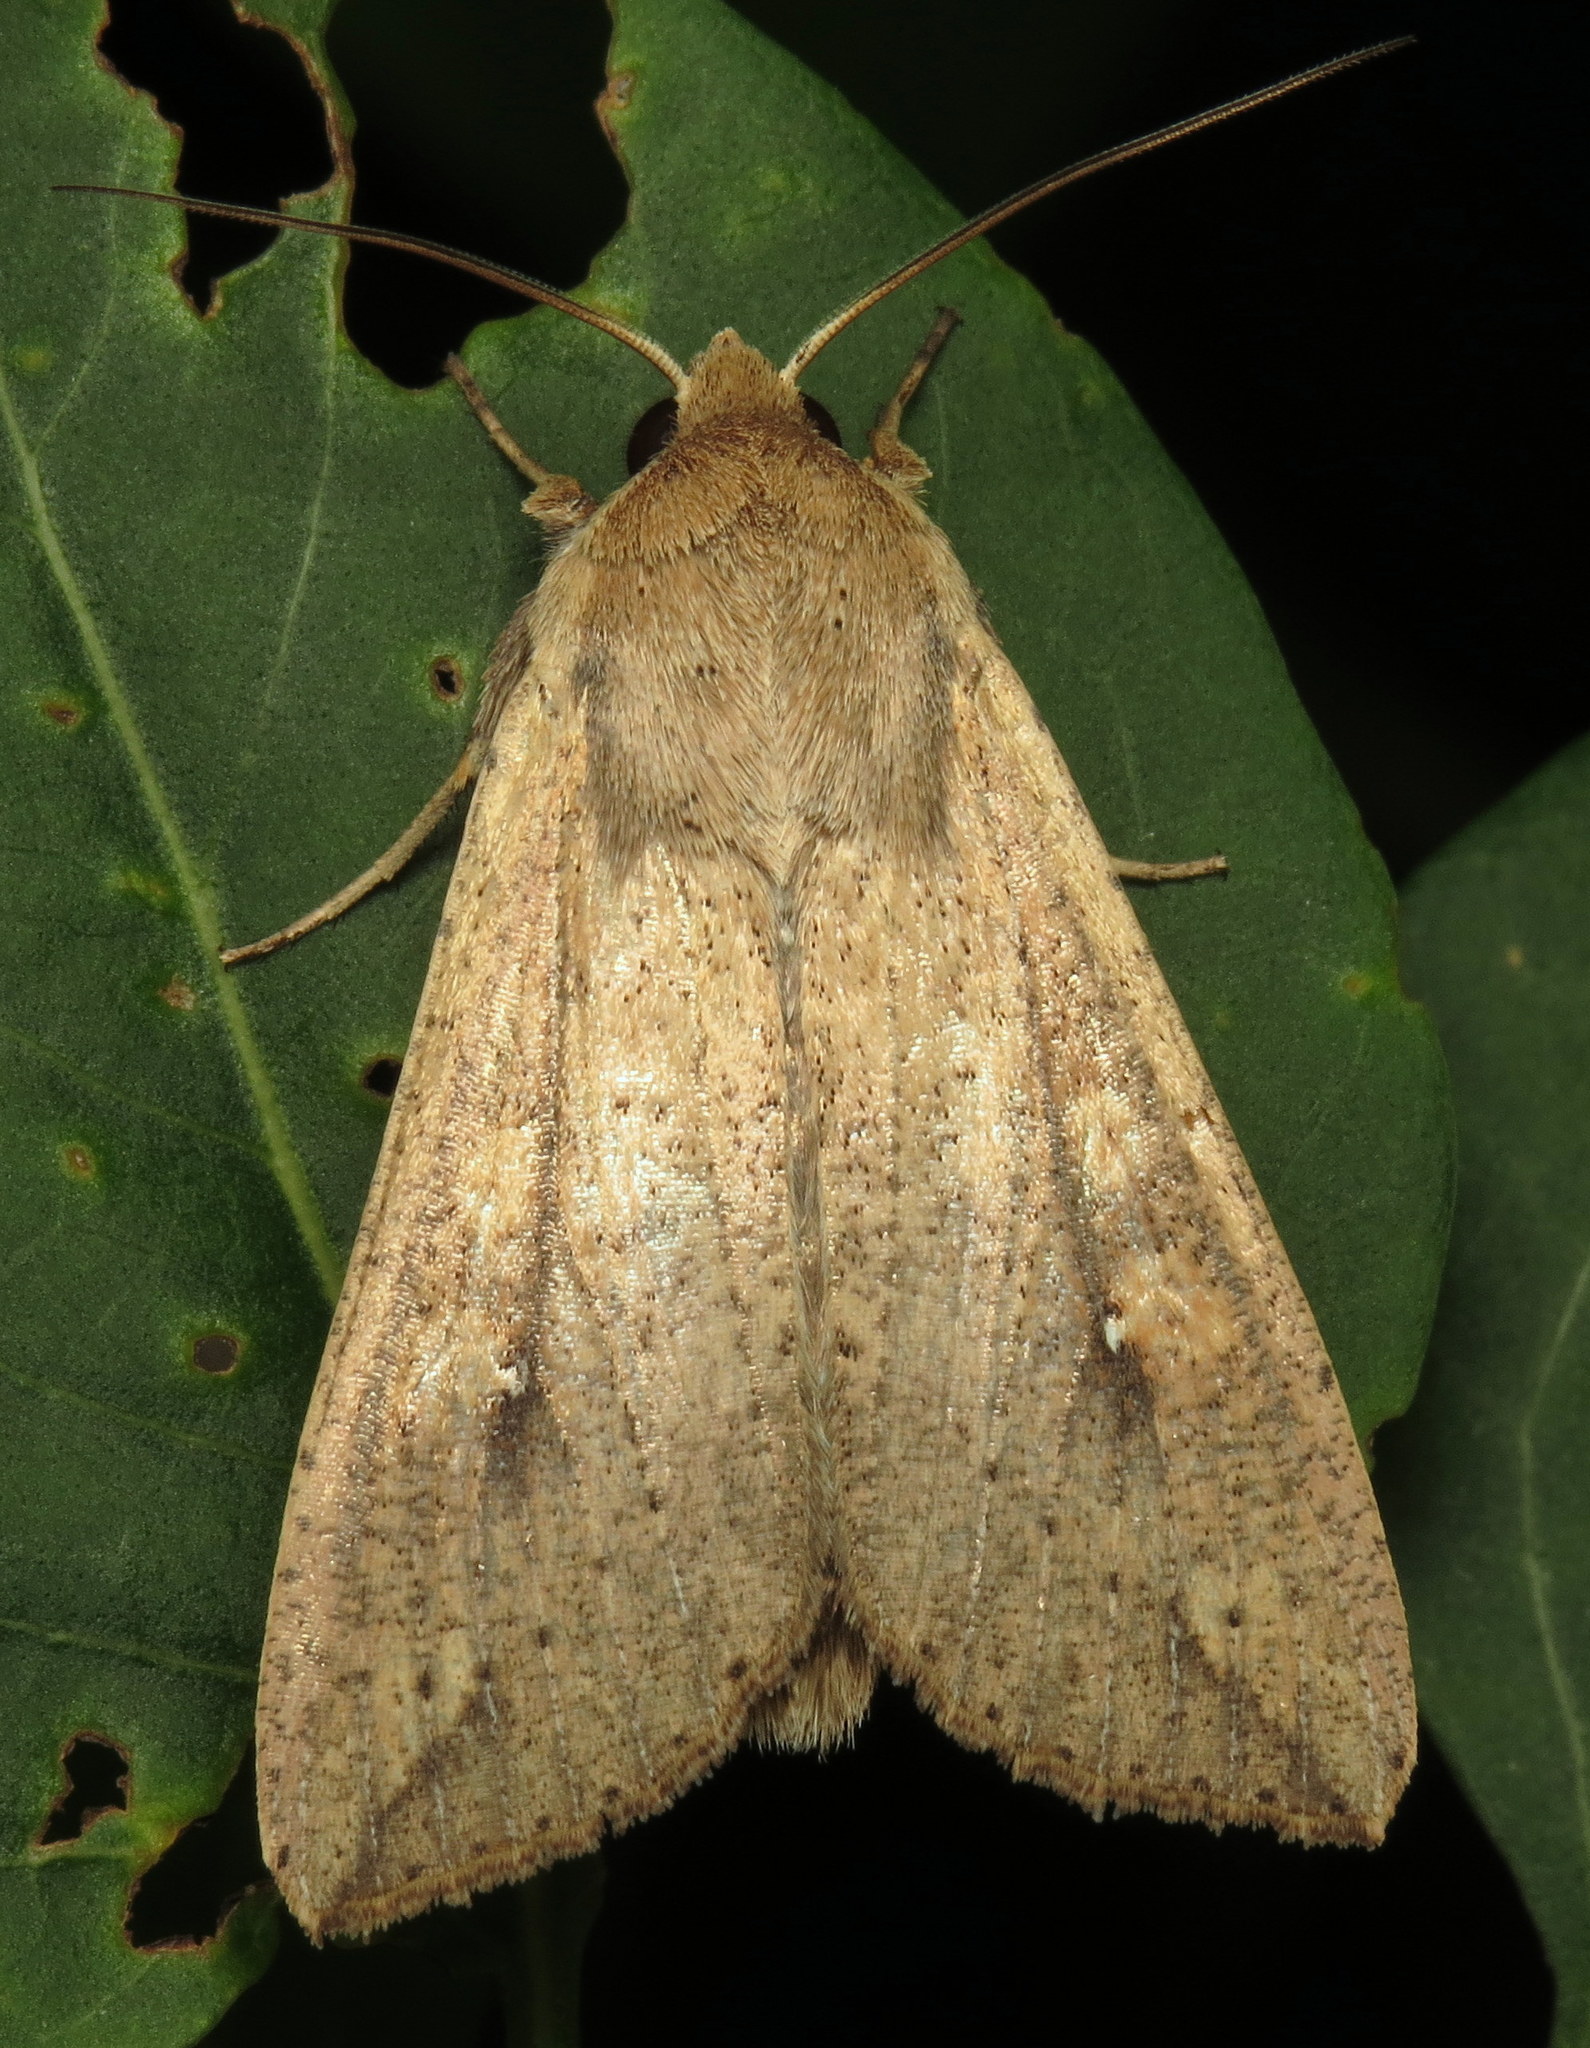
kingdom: Animalia
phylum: Arthropoda
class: Insecta
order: Lepidoptera
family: Noctuidae
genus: Mythimna
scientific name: Mythimna unipuncta
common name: White-speck
